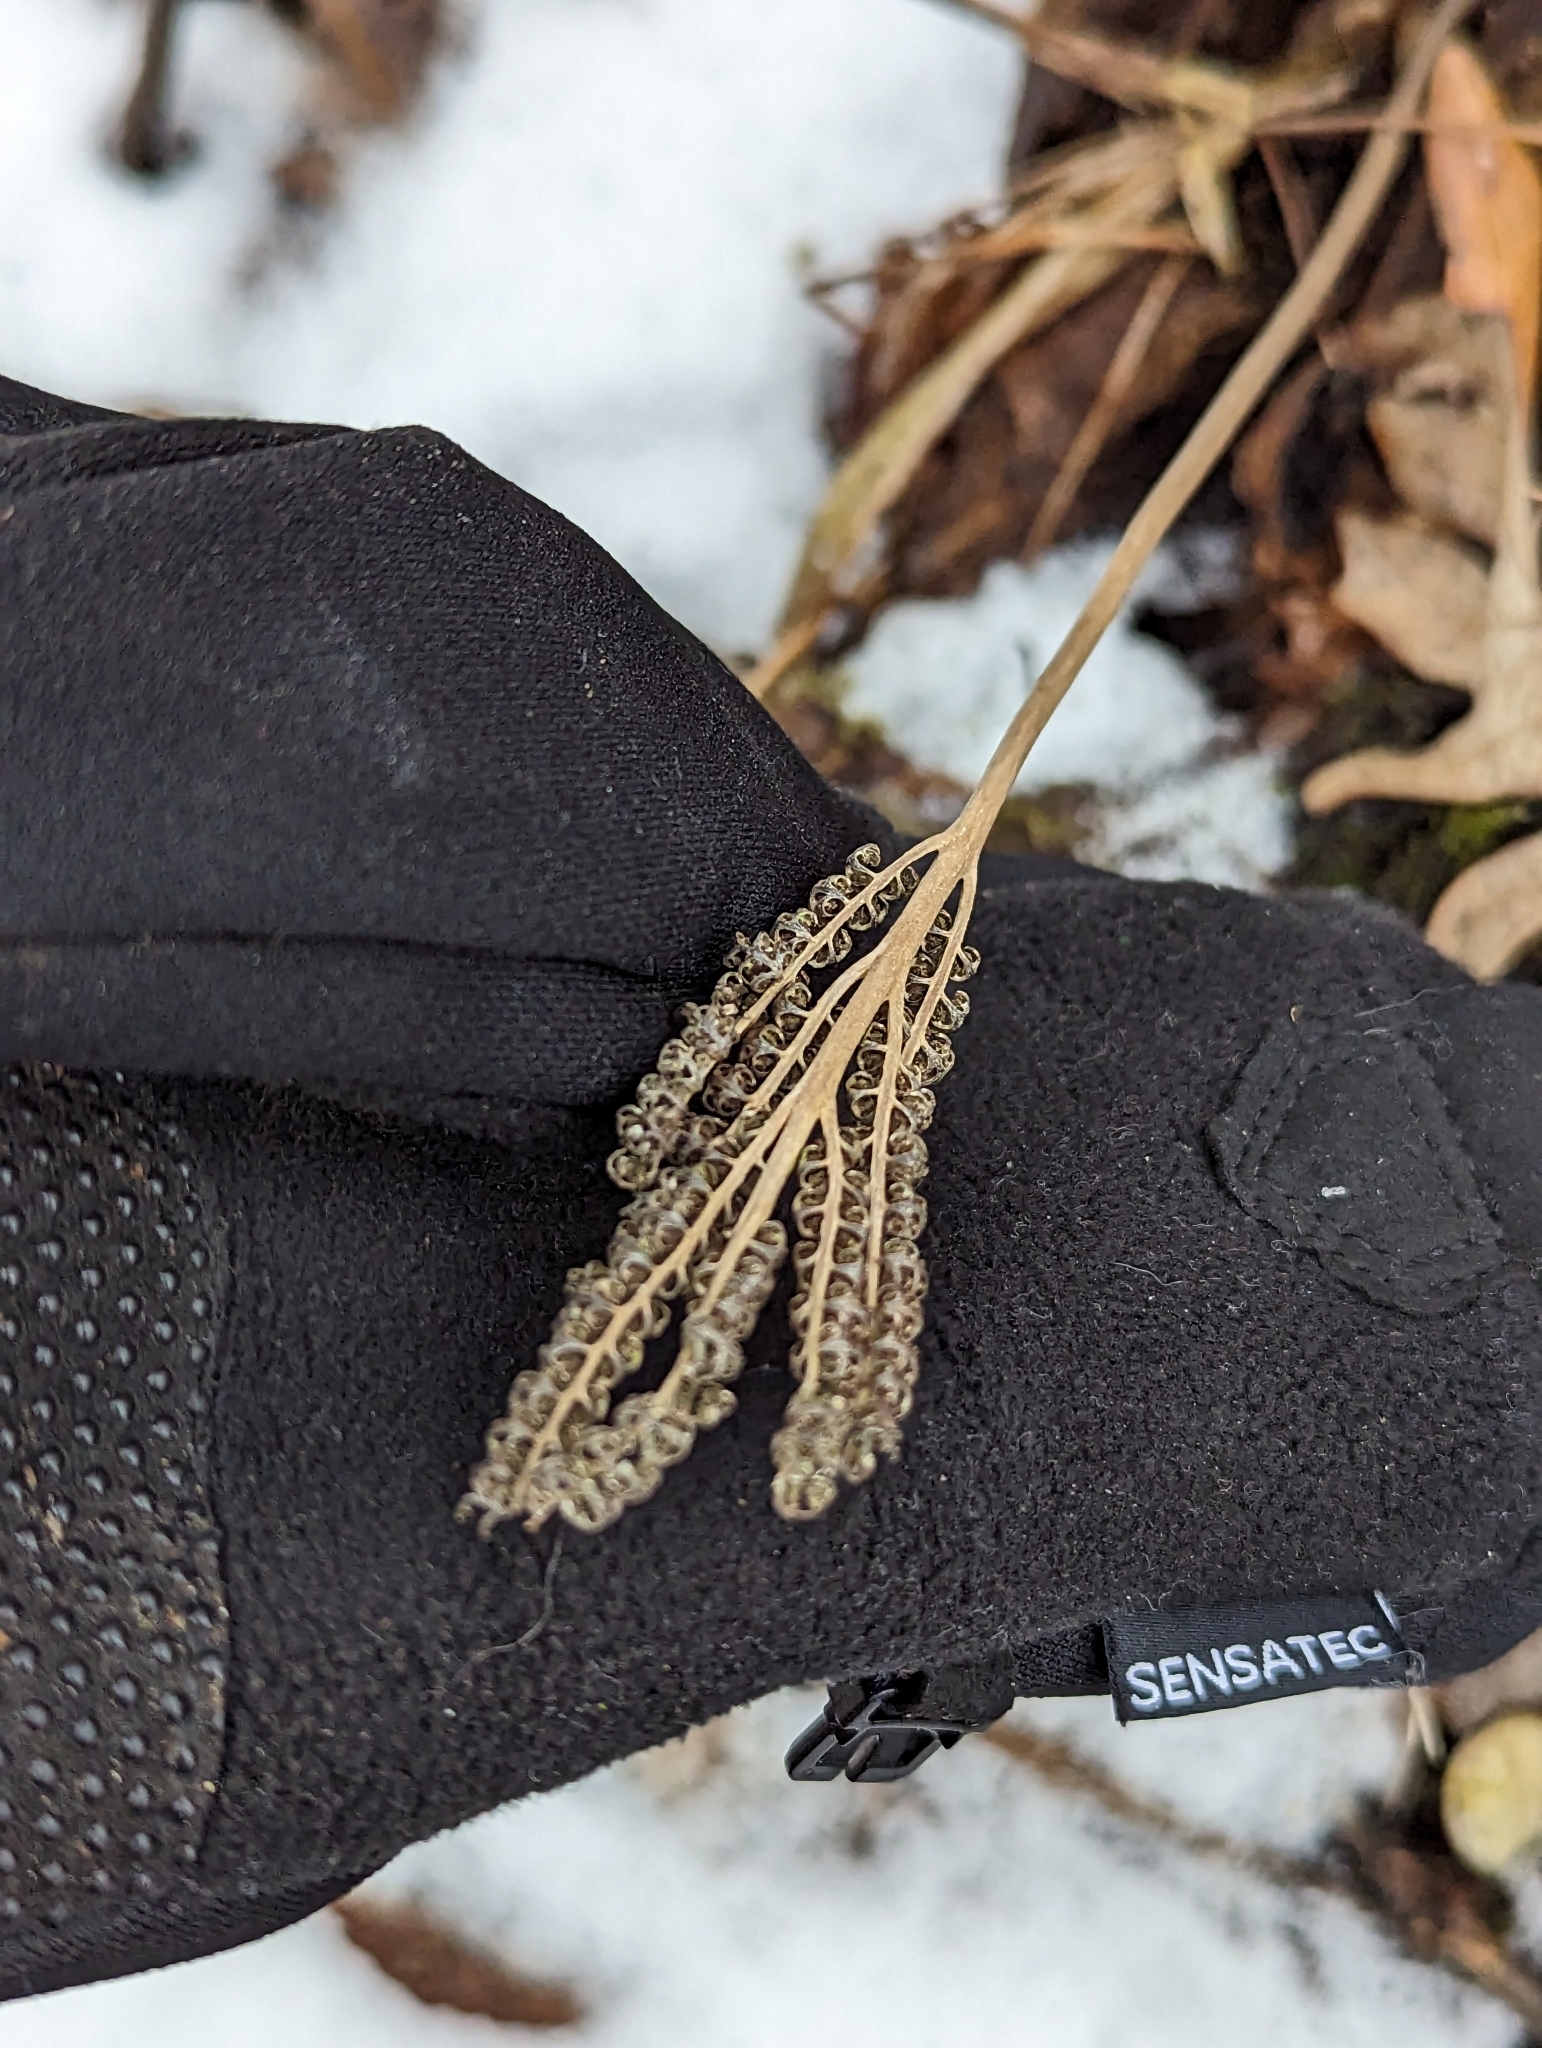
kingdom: Plantae
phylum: Tracheophyta
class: Polypodiopsida
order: Polypodiales
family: Onocleaceae
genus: Onoclea
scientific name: Onoclea sensibilis
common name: Sensitive fern
